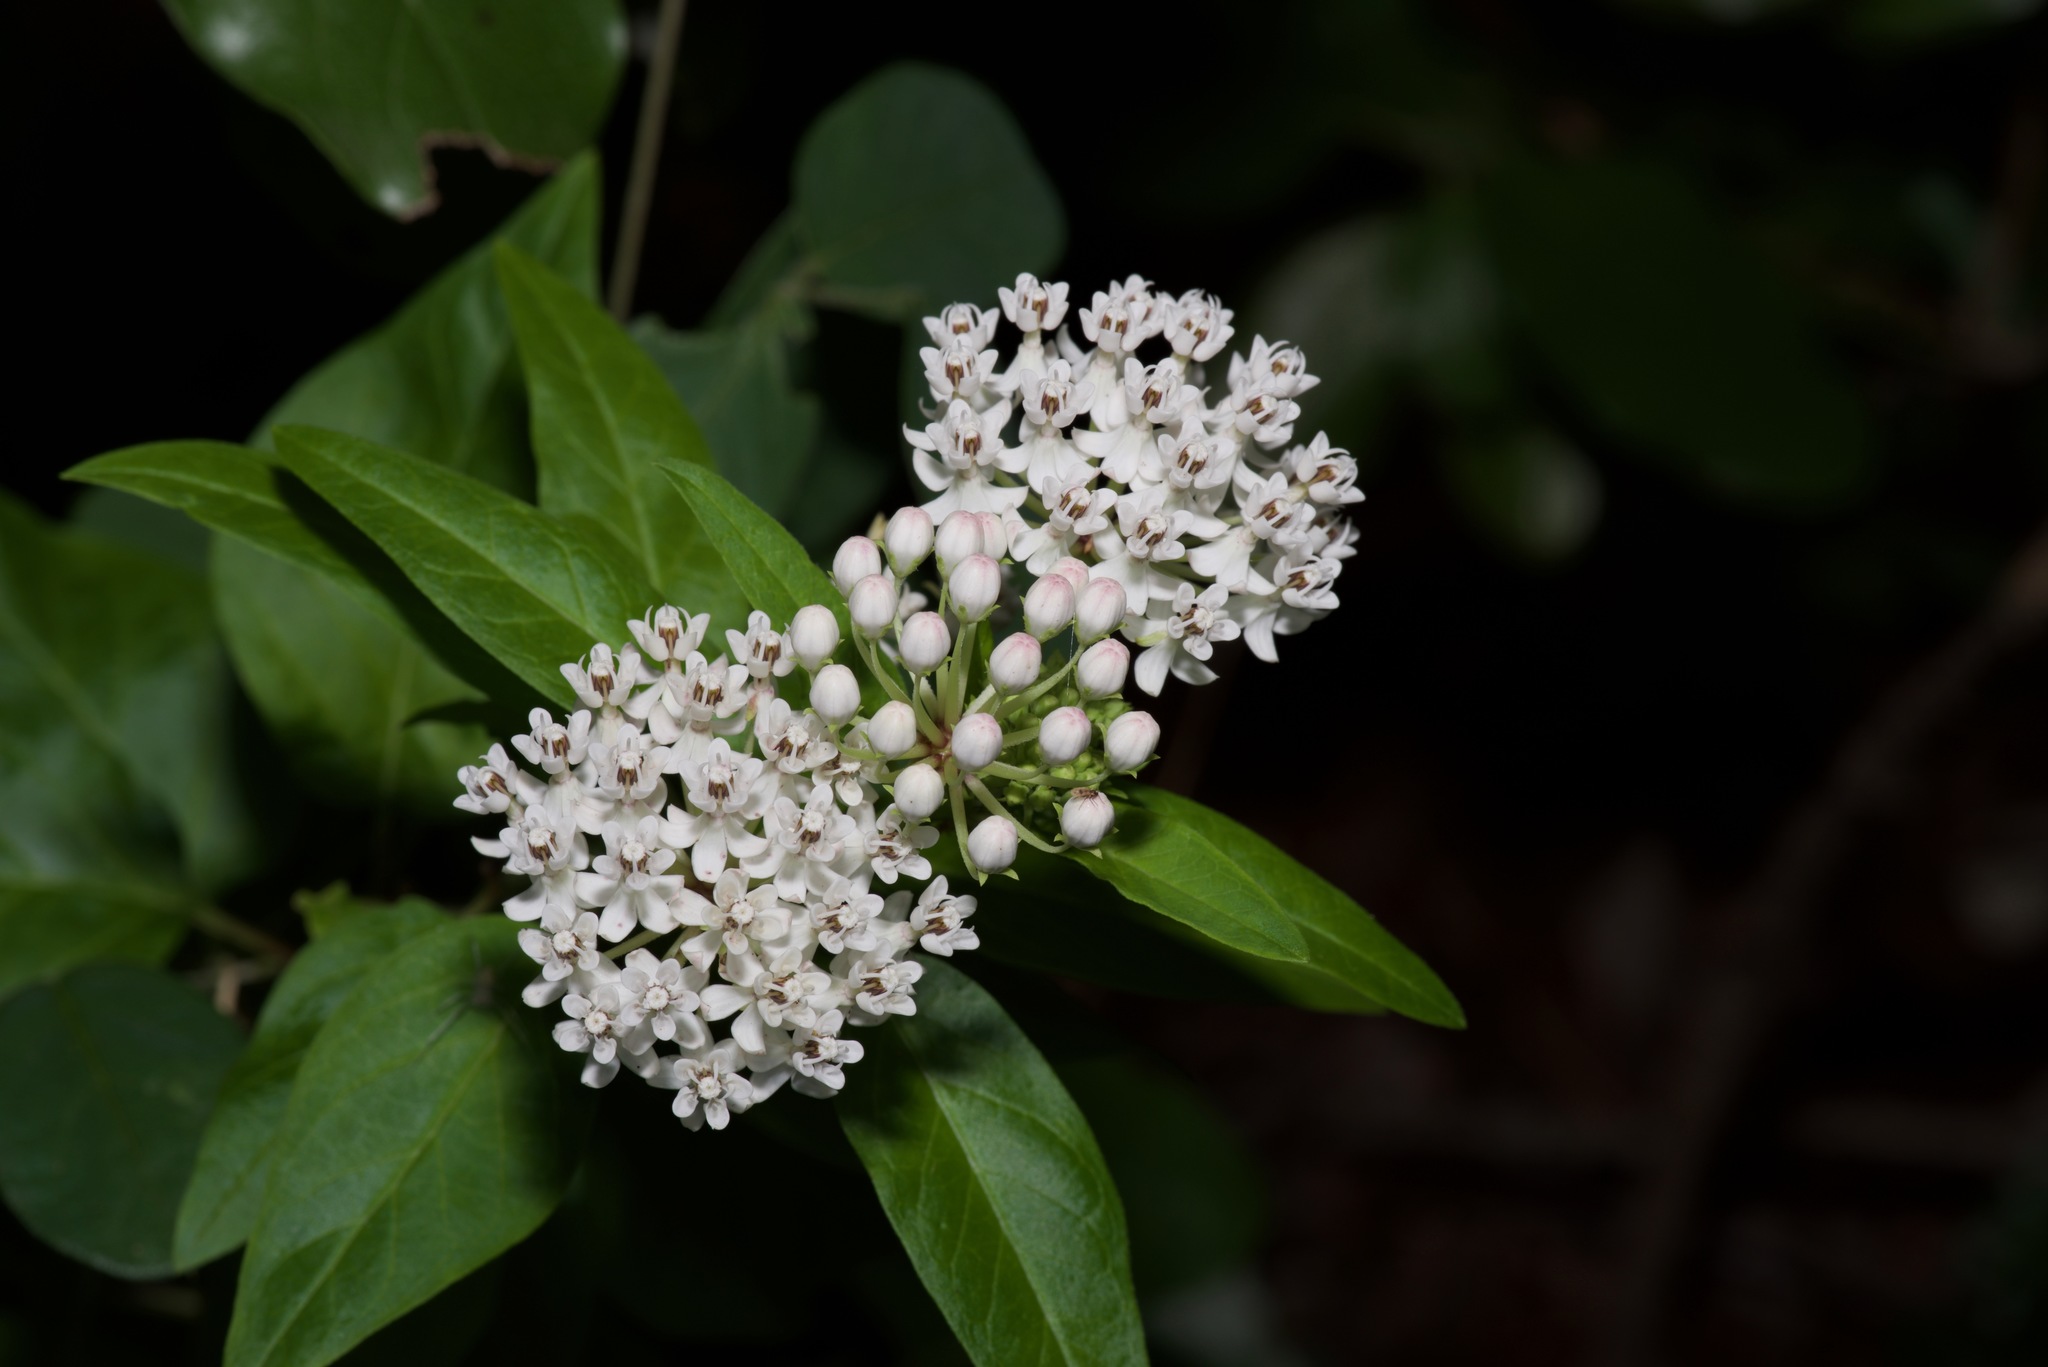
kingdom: Plantae
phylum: Tracheophyta
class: Magnoliopsida
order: Gentianales
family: Apocynaceae
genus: Asclepias
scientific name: Asclepias texana
